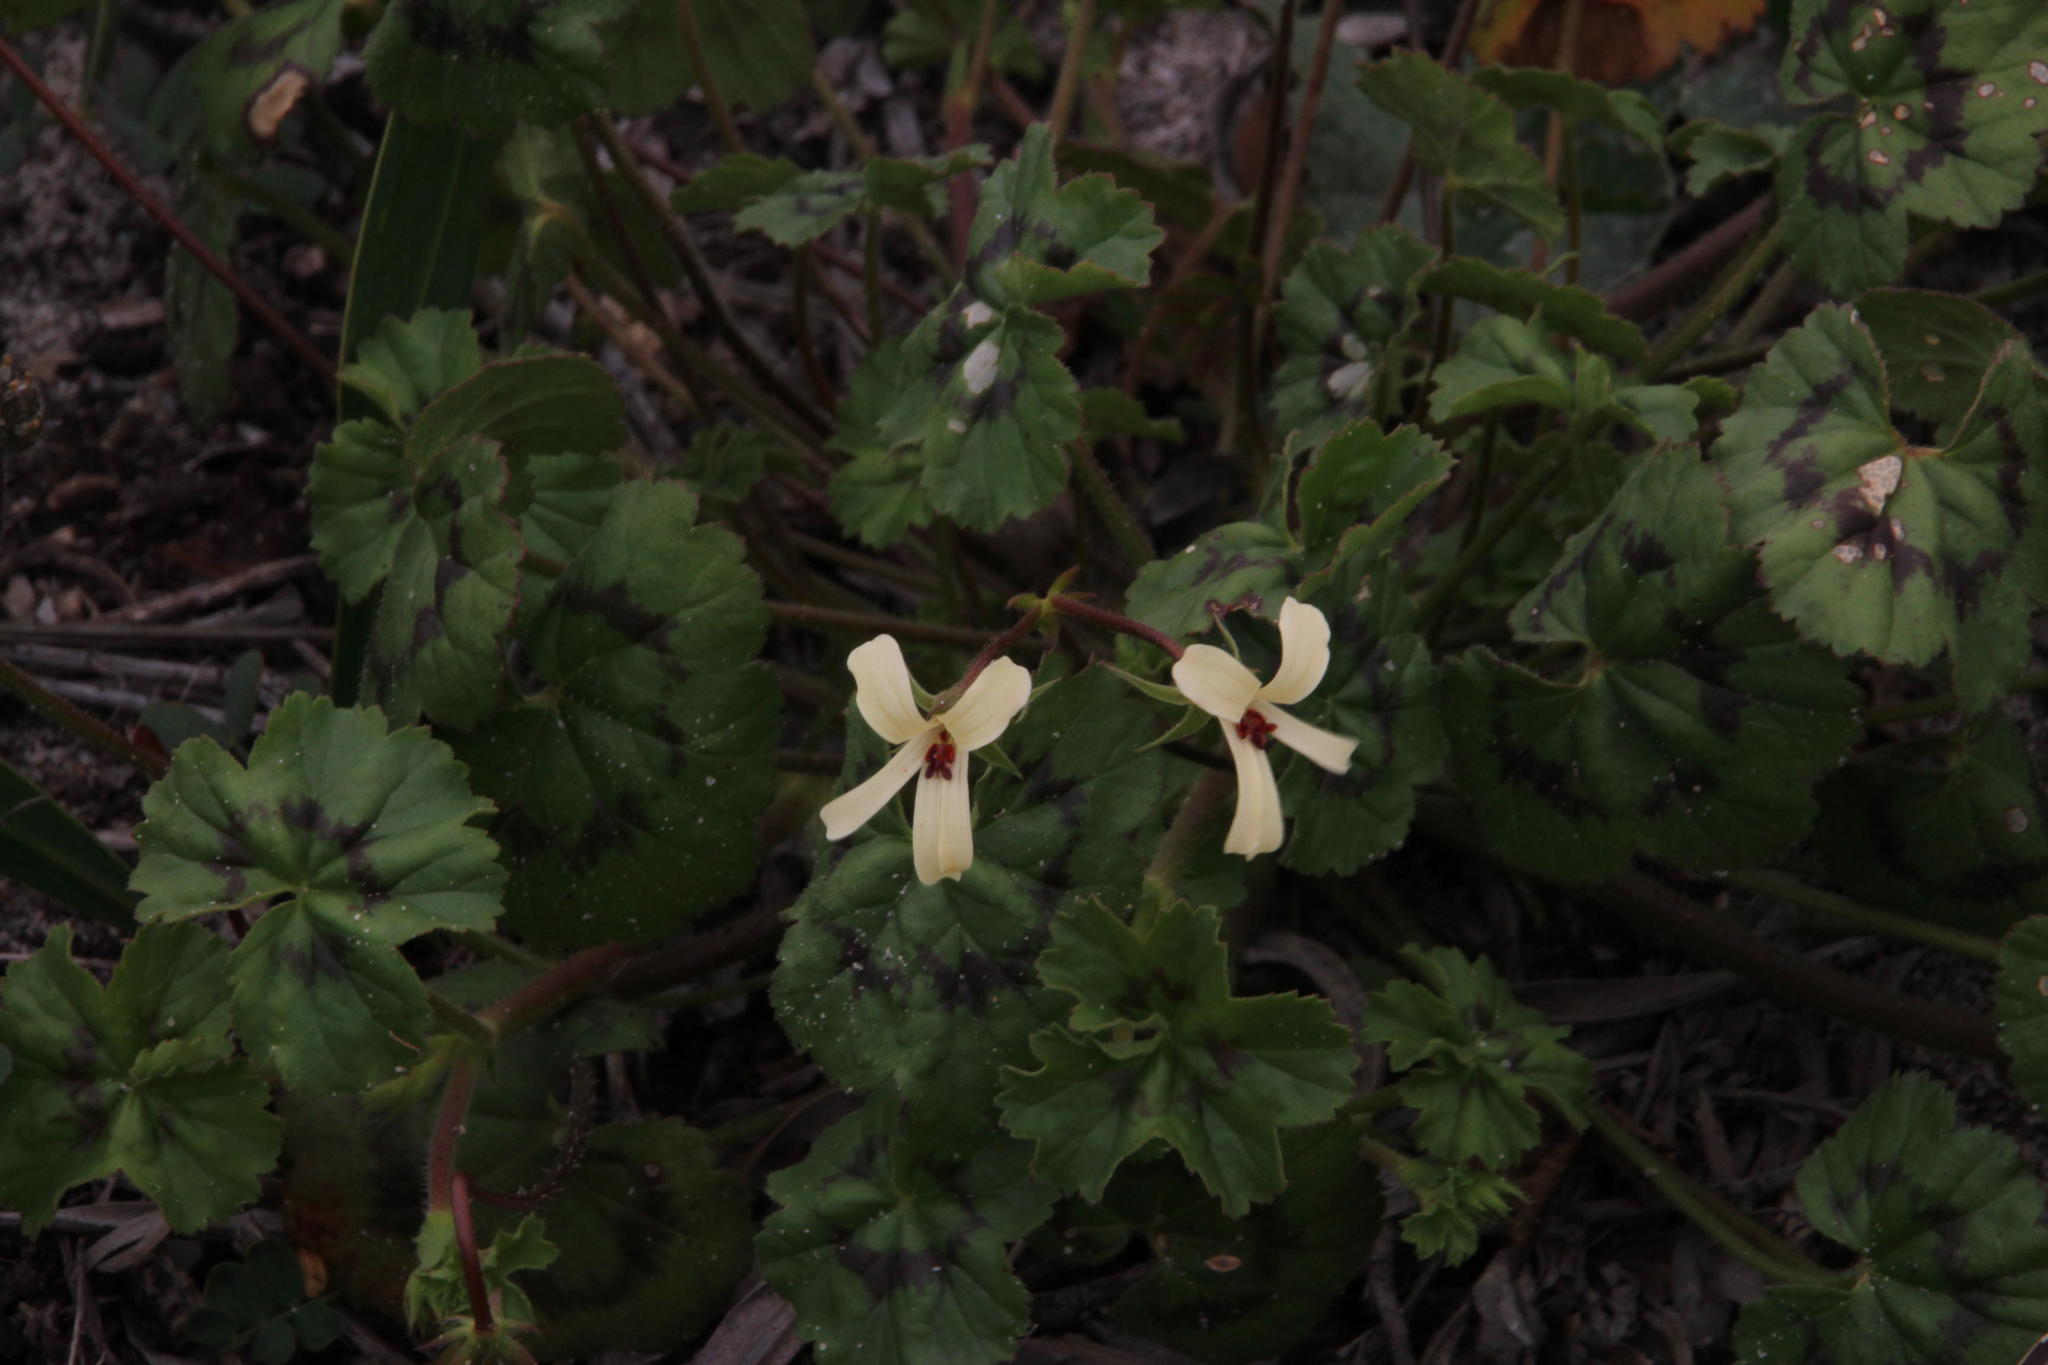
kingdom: Plantae
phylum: Tracheophyta
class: Magnoliopsida
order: Geraniales
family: Geraniaceae
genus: Pelargonium
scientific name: Pelargonium elongatum
